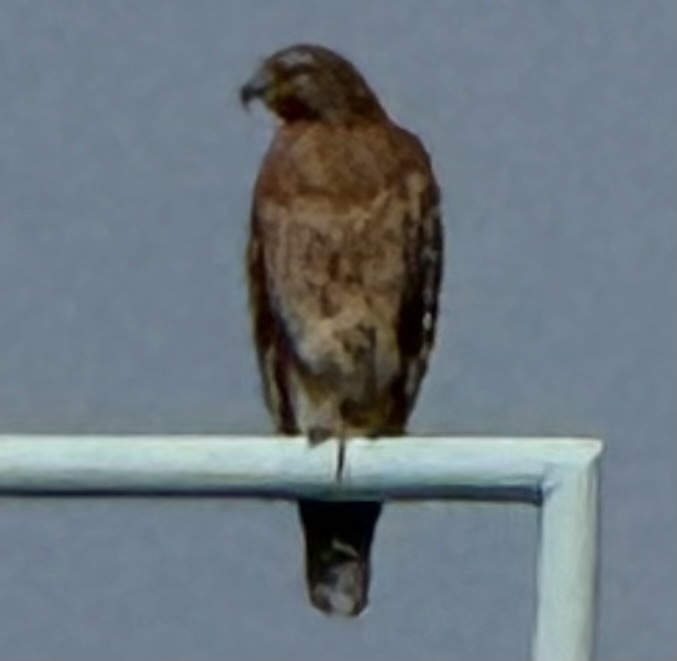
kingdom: Animalia
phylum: Chordata
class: Aves
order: Accipitriformes
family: Accipitridae
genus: Buteo
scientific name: Buteo lineatus
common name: Red-shouldered hawk
